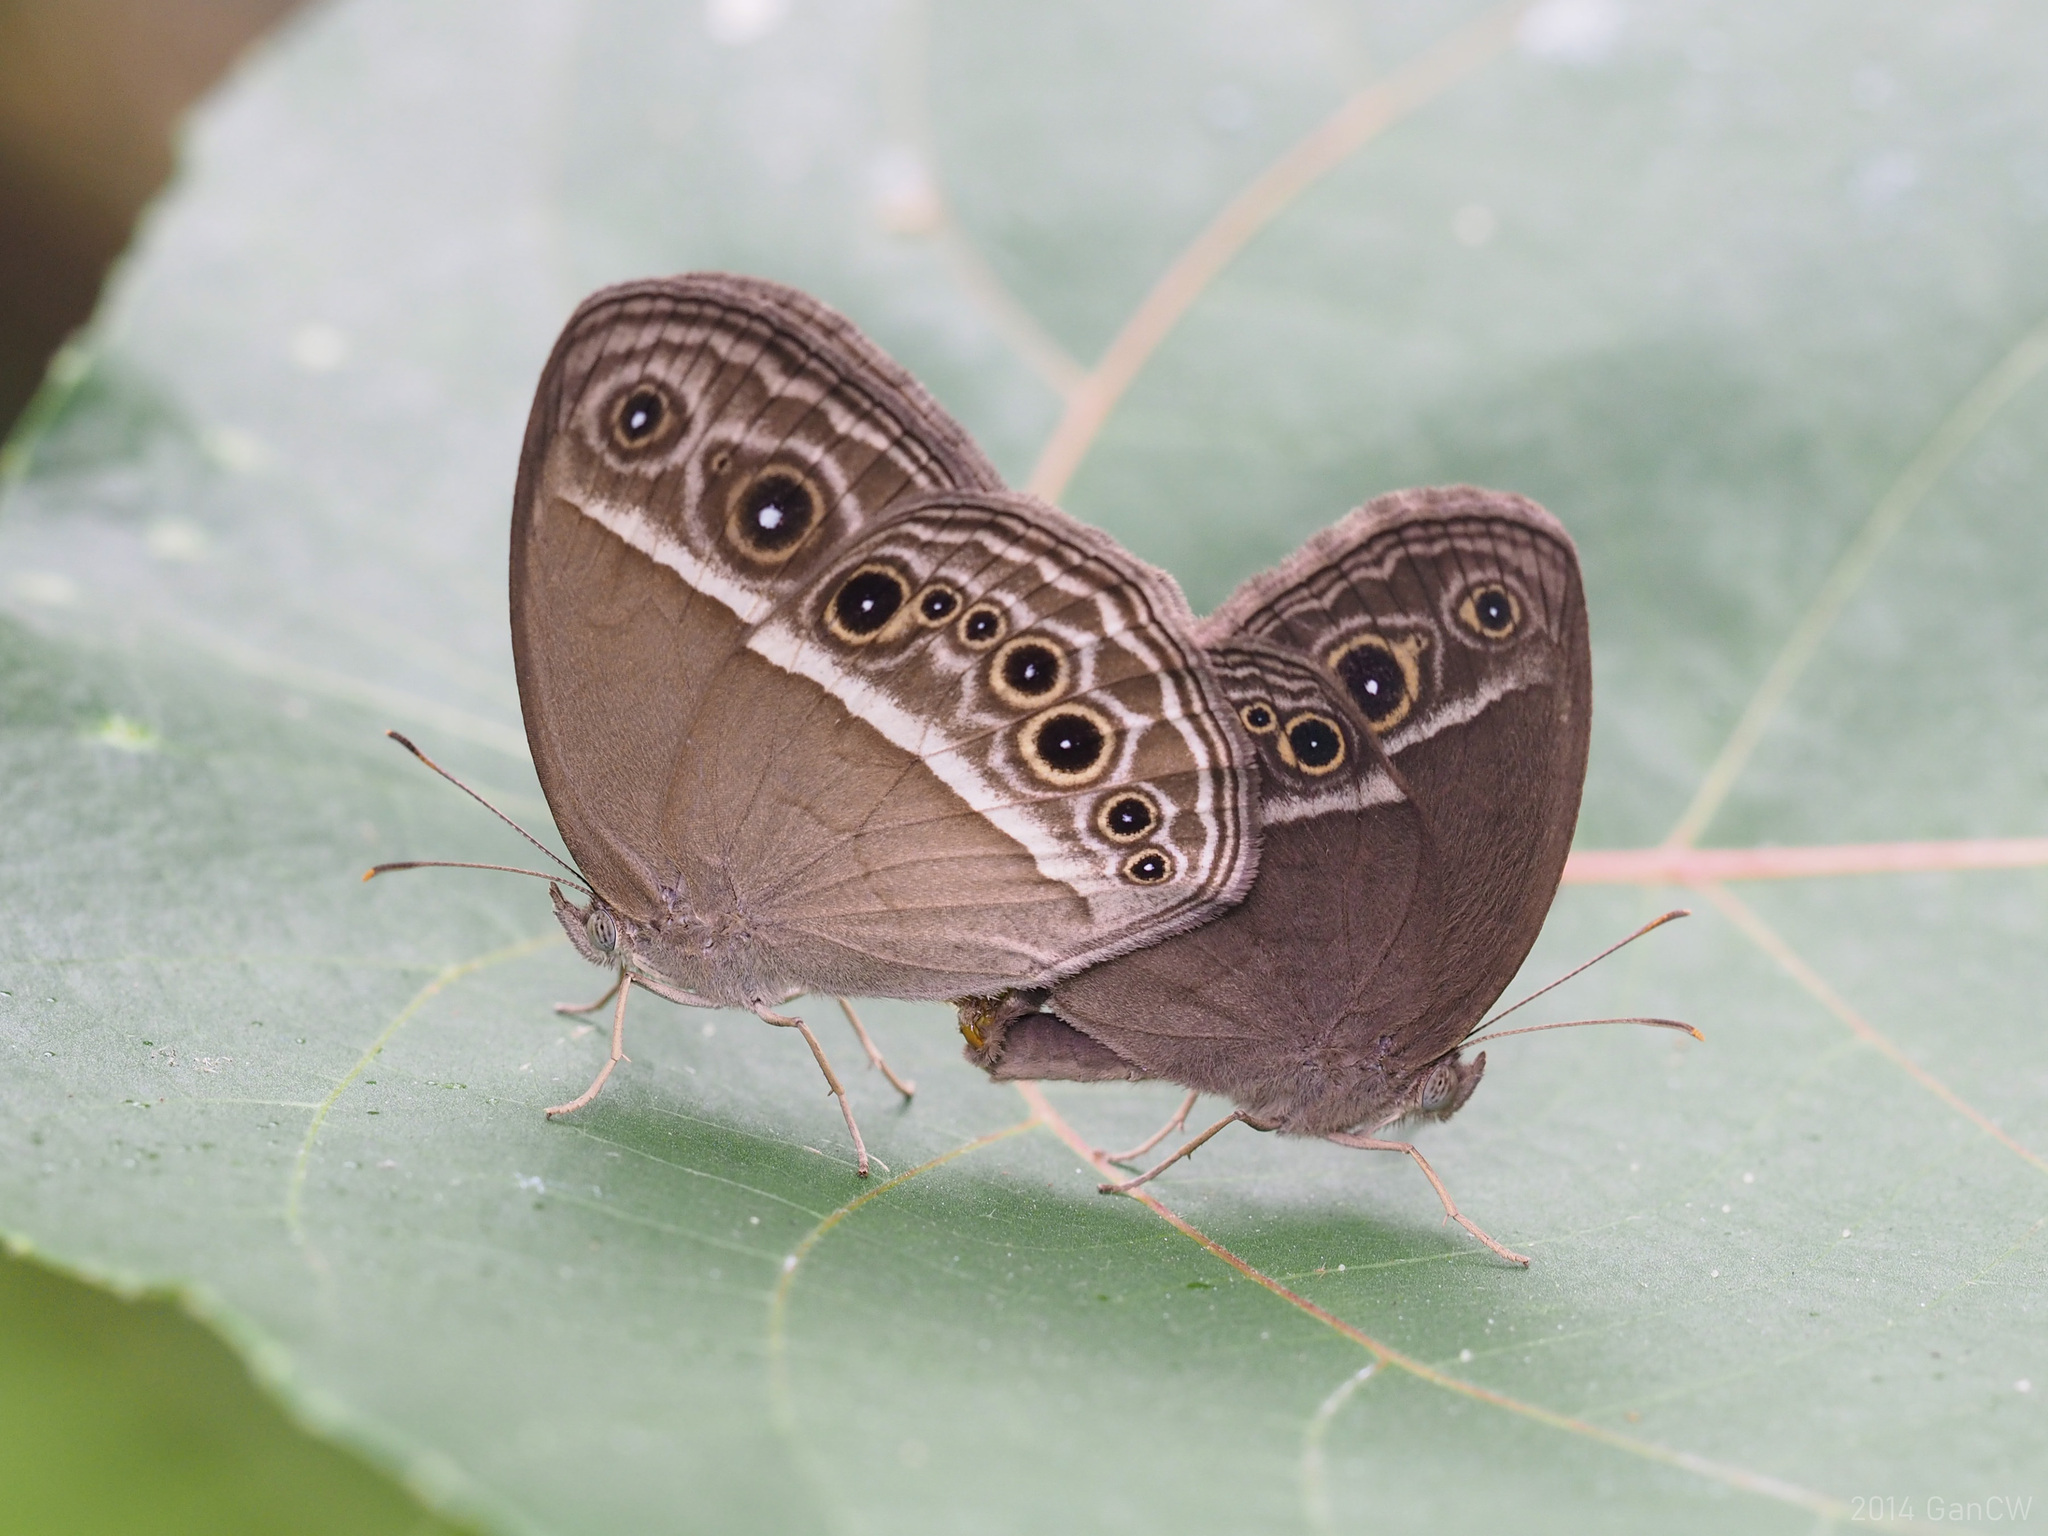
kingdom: Animalia
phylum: Arthropoda
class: Insecta
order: Lepidoptera
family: Nymphalidae
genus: Mycalesis
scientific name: Mycalesis mineus
